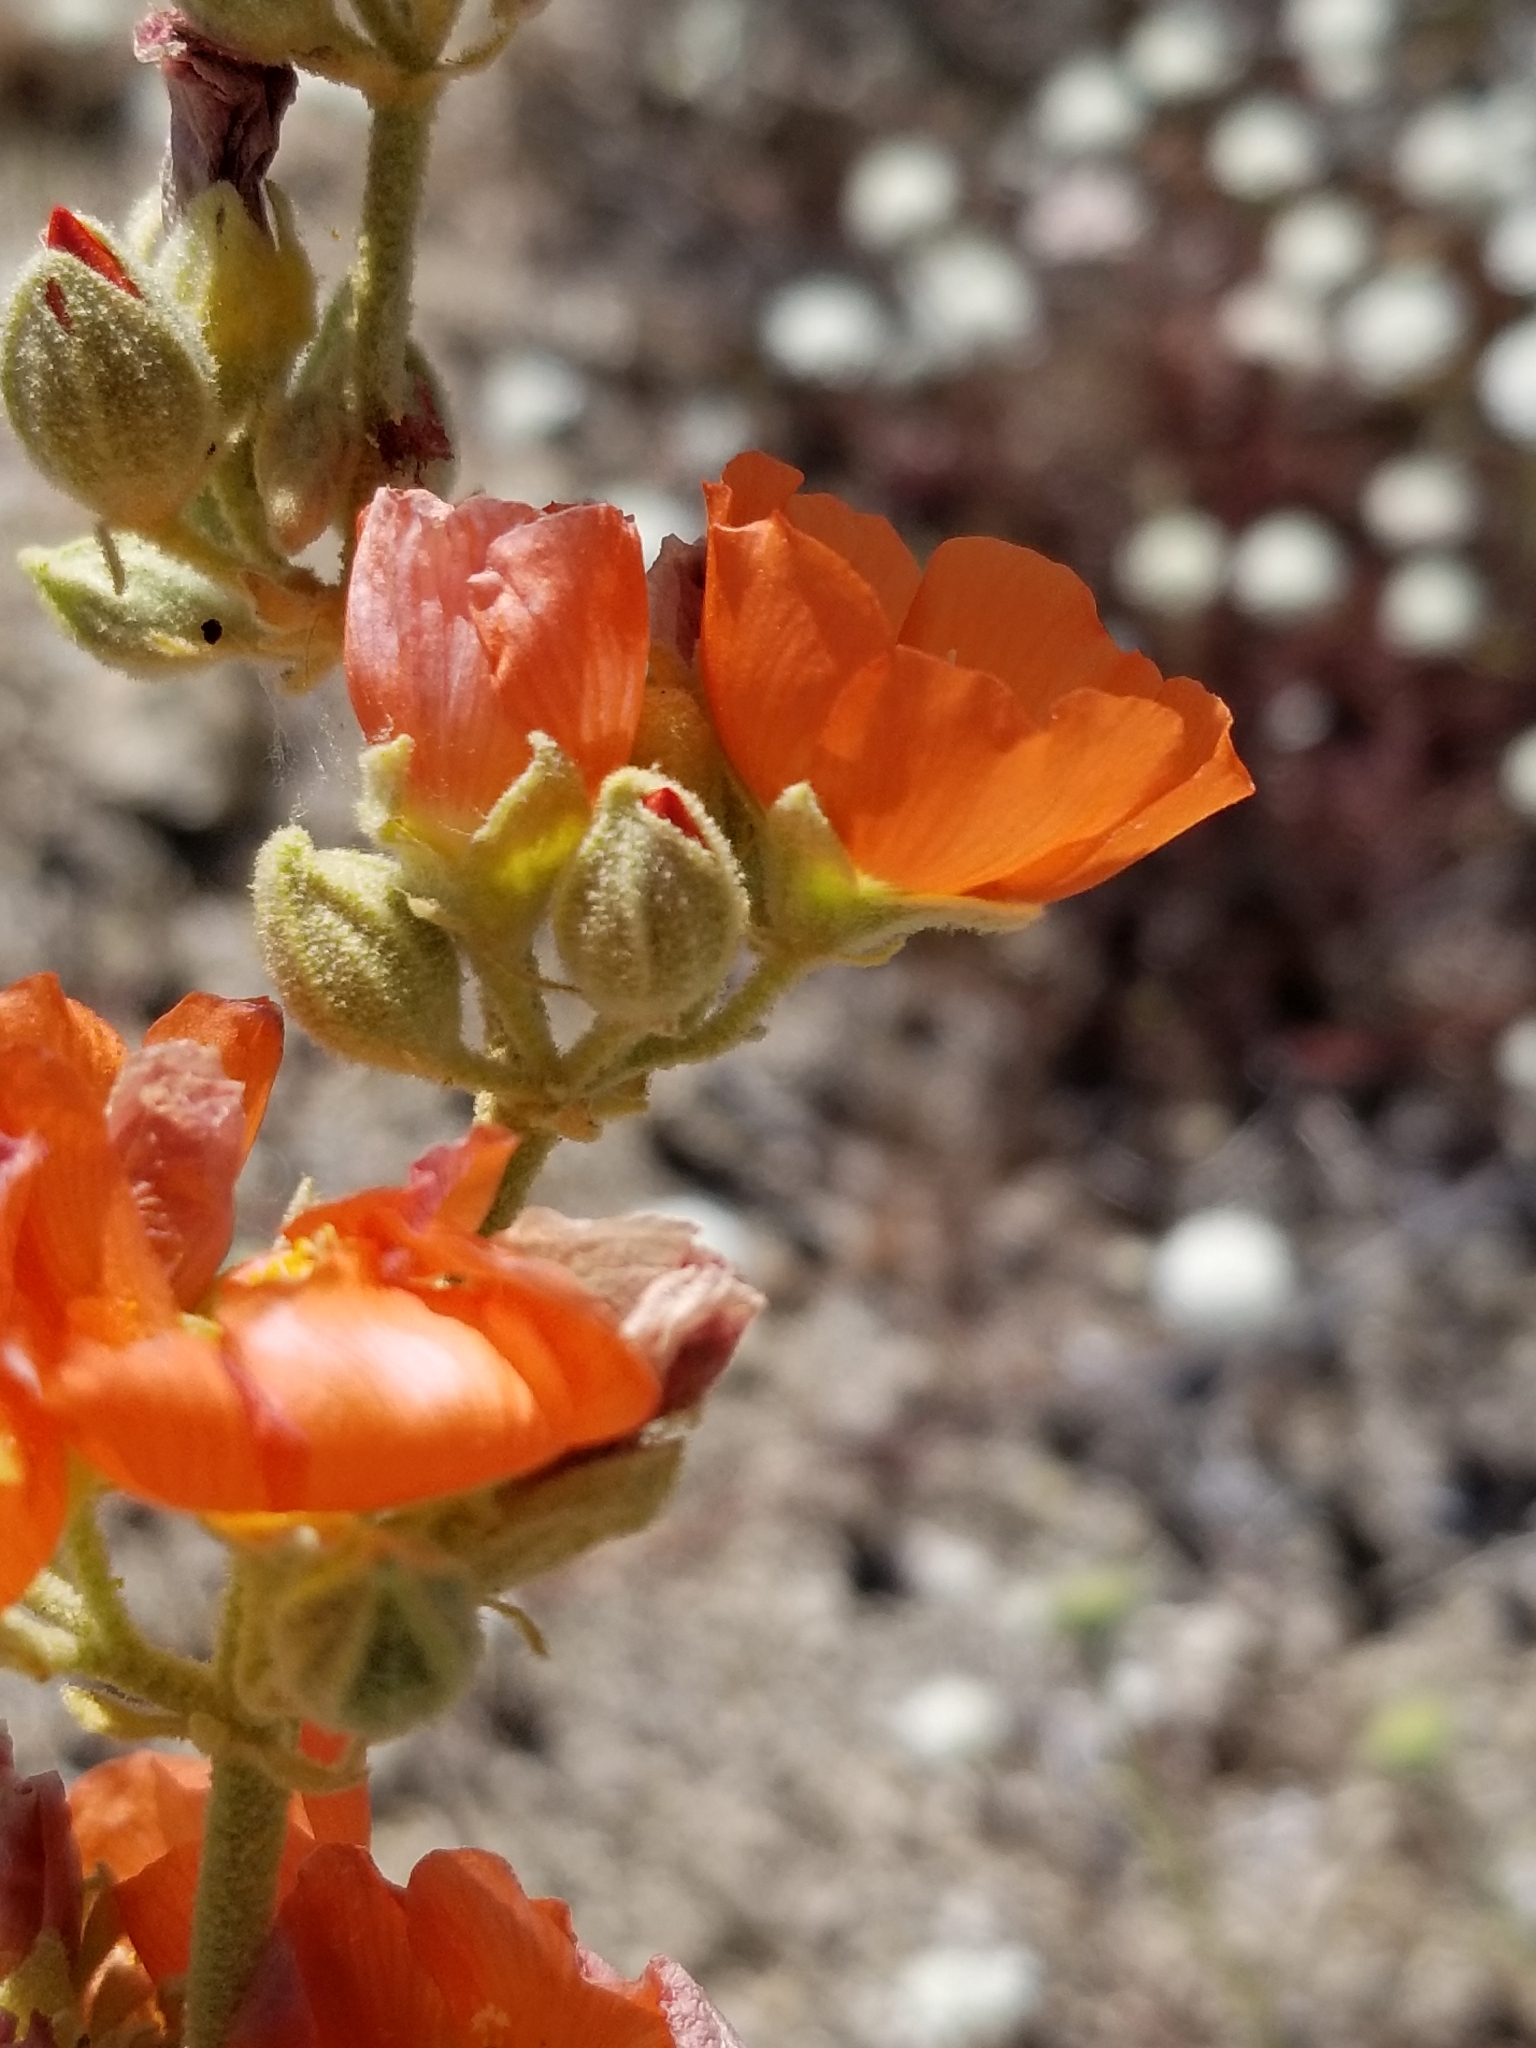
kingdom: Plantae
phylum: Tracheophyta
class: Magnoliopsida
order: Malvales
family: Malvaceae
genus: Sphaeralcea
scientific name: Sphaeralcea ambigua
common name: Apricot globe-mallow
